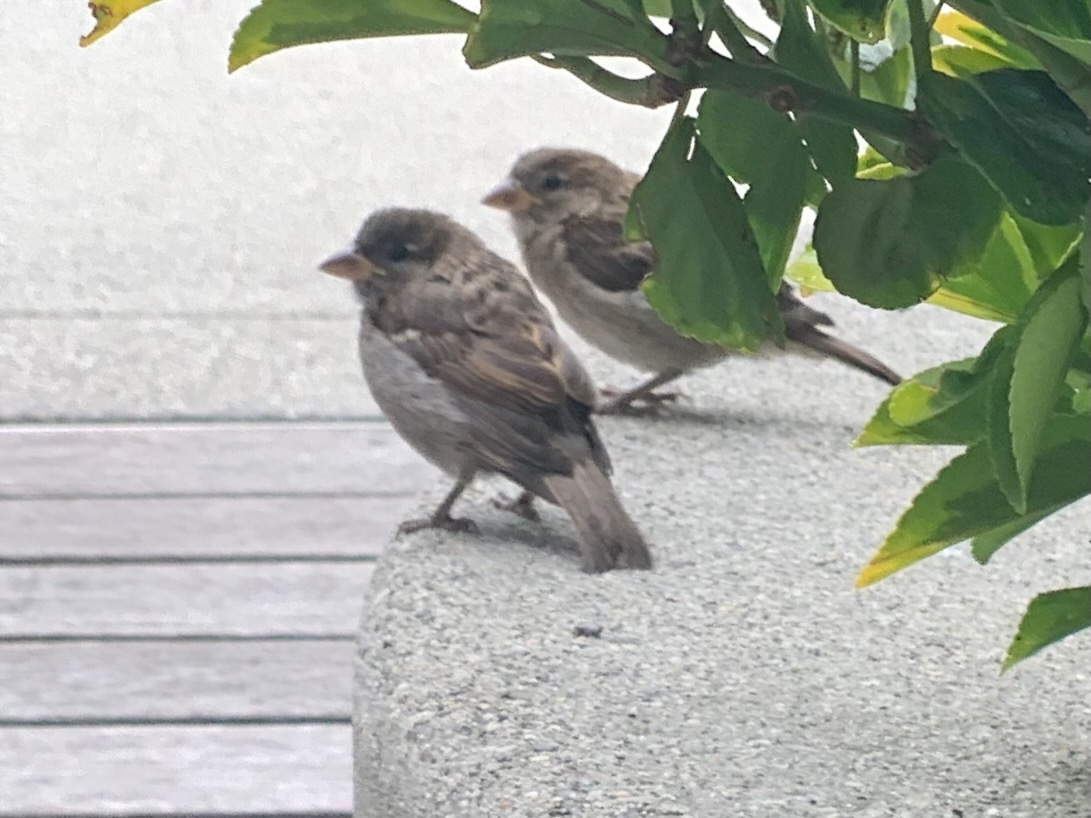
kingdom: Animalia
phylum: Chordata
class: Aves
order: Passeriformes
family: Passeridae
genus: Passer
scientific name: Passer domesticus
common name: House sparrow
